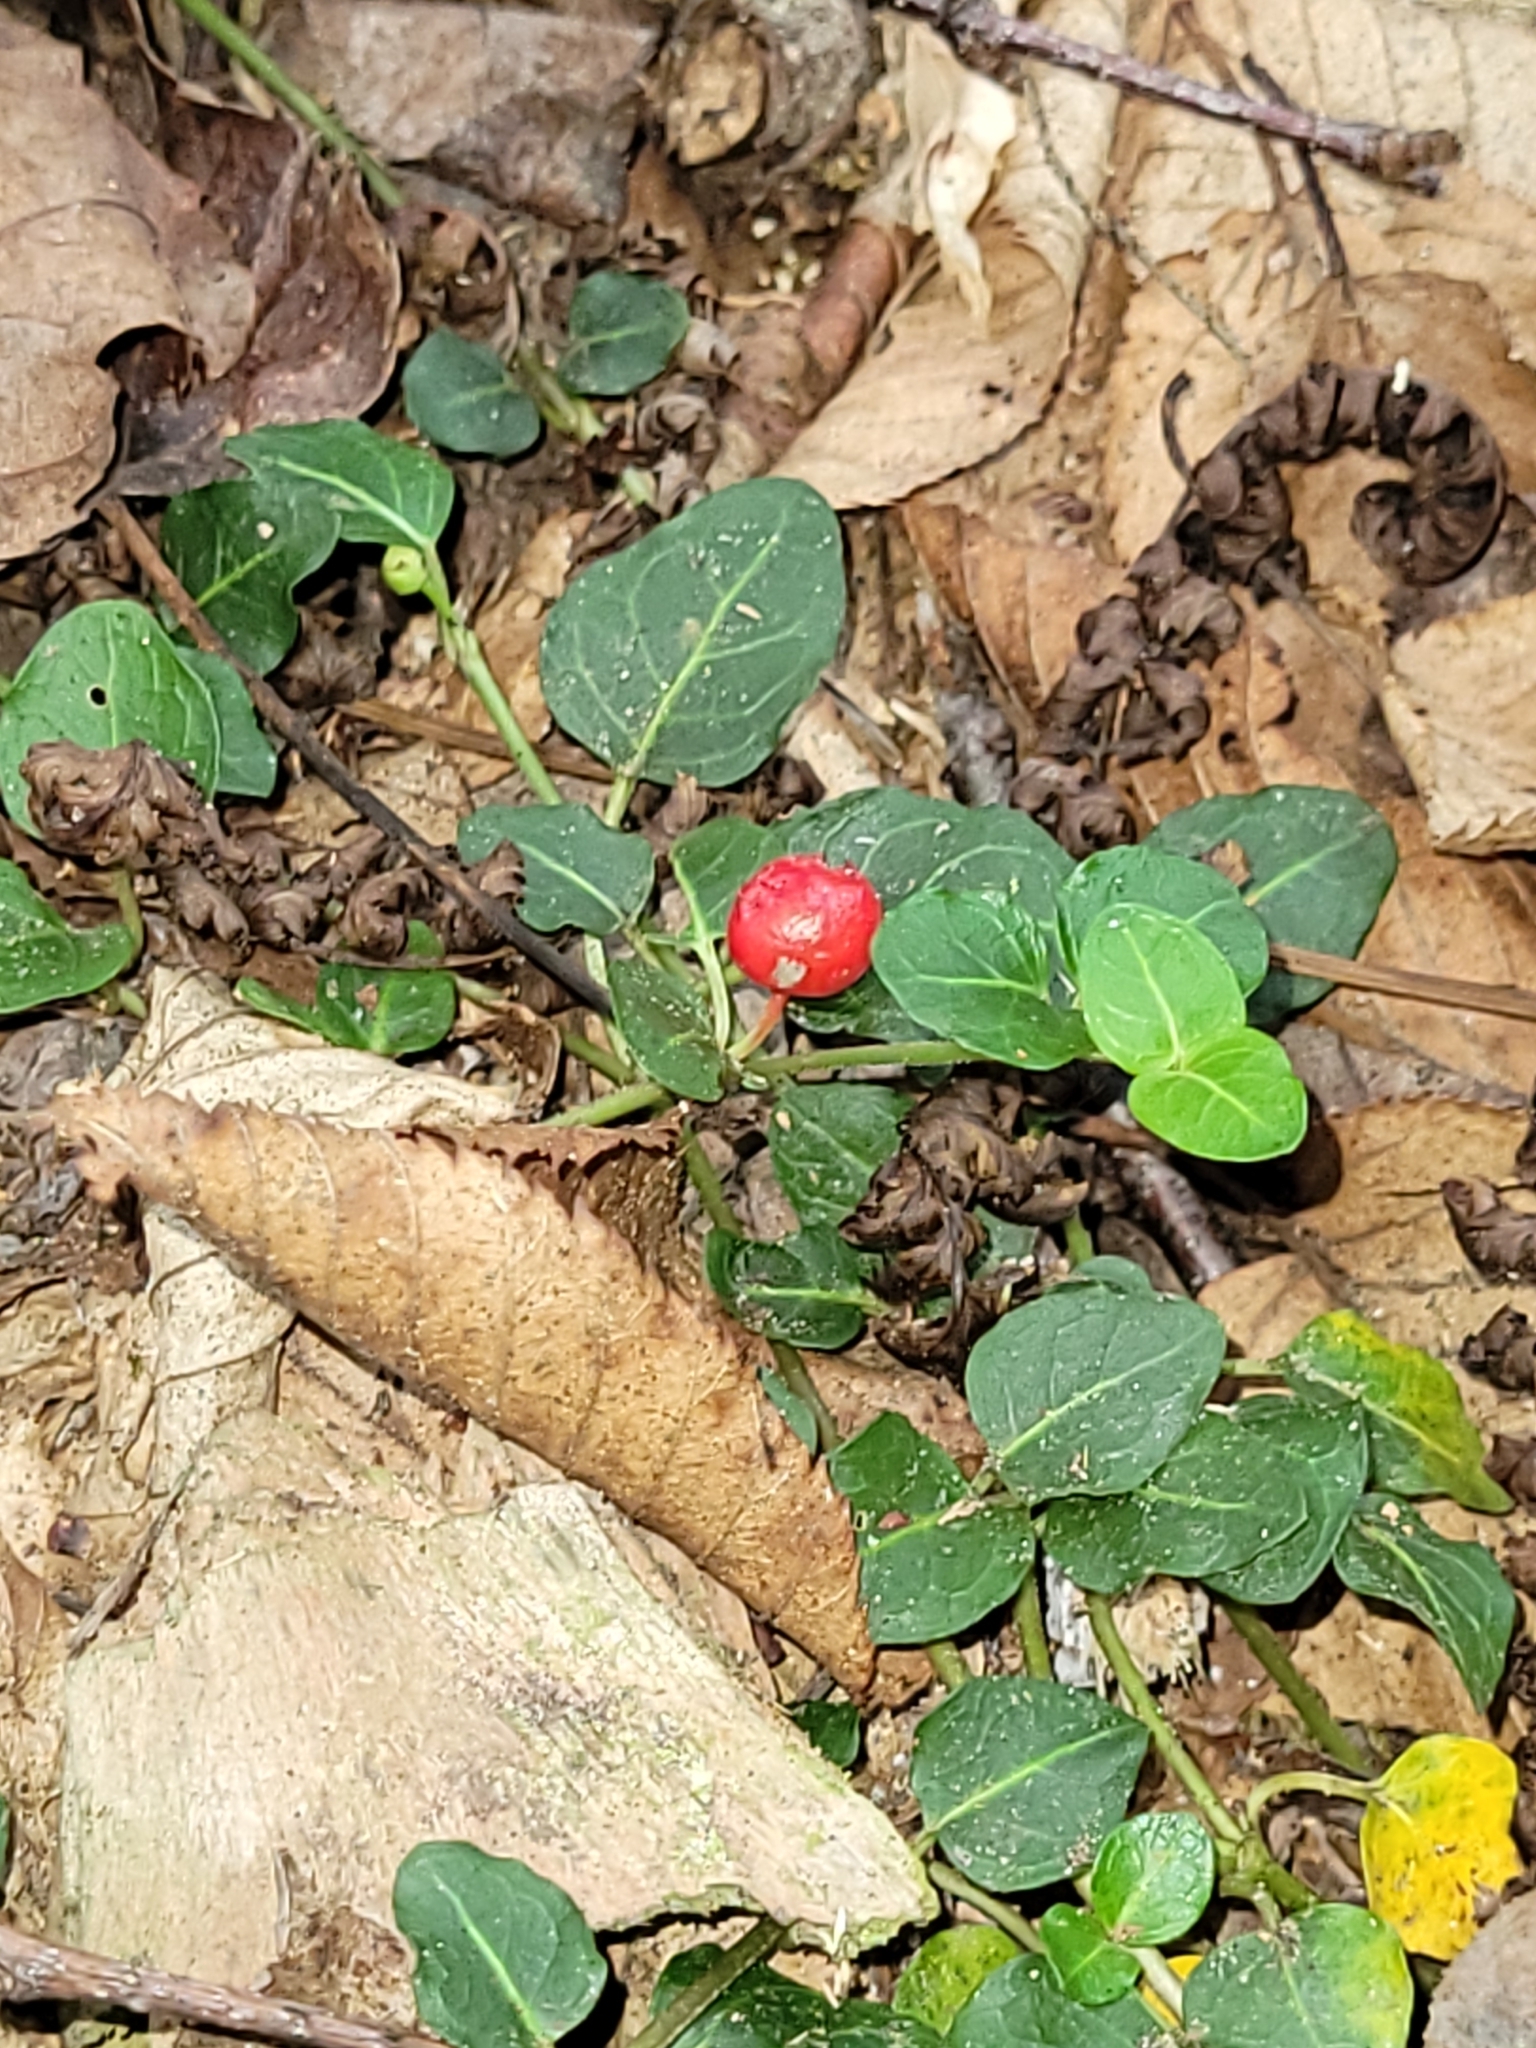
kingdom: Plantae
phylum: Tracheophyta
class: Magnoliopsida
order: Gentianales
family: Rubiaceae
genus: Mitchella
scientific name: Mitchella repens
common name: Partridge-berry
